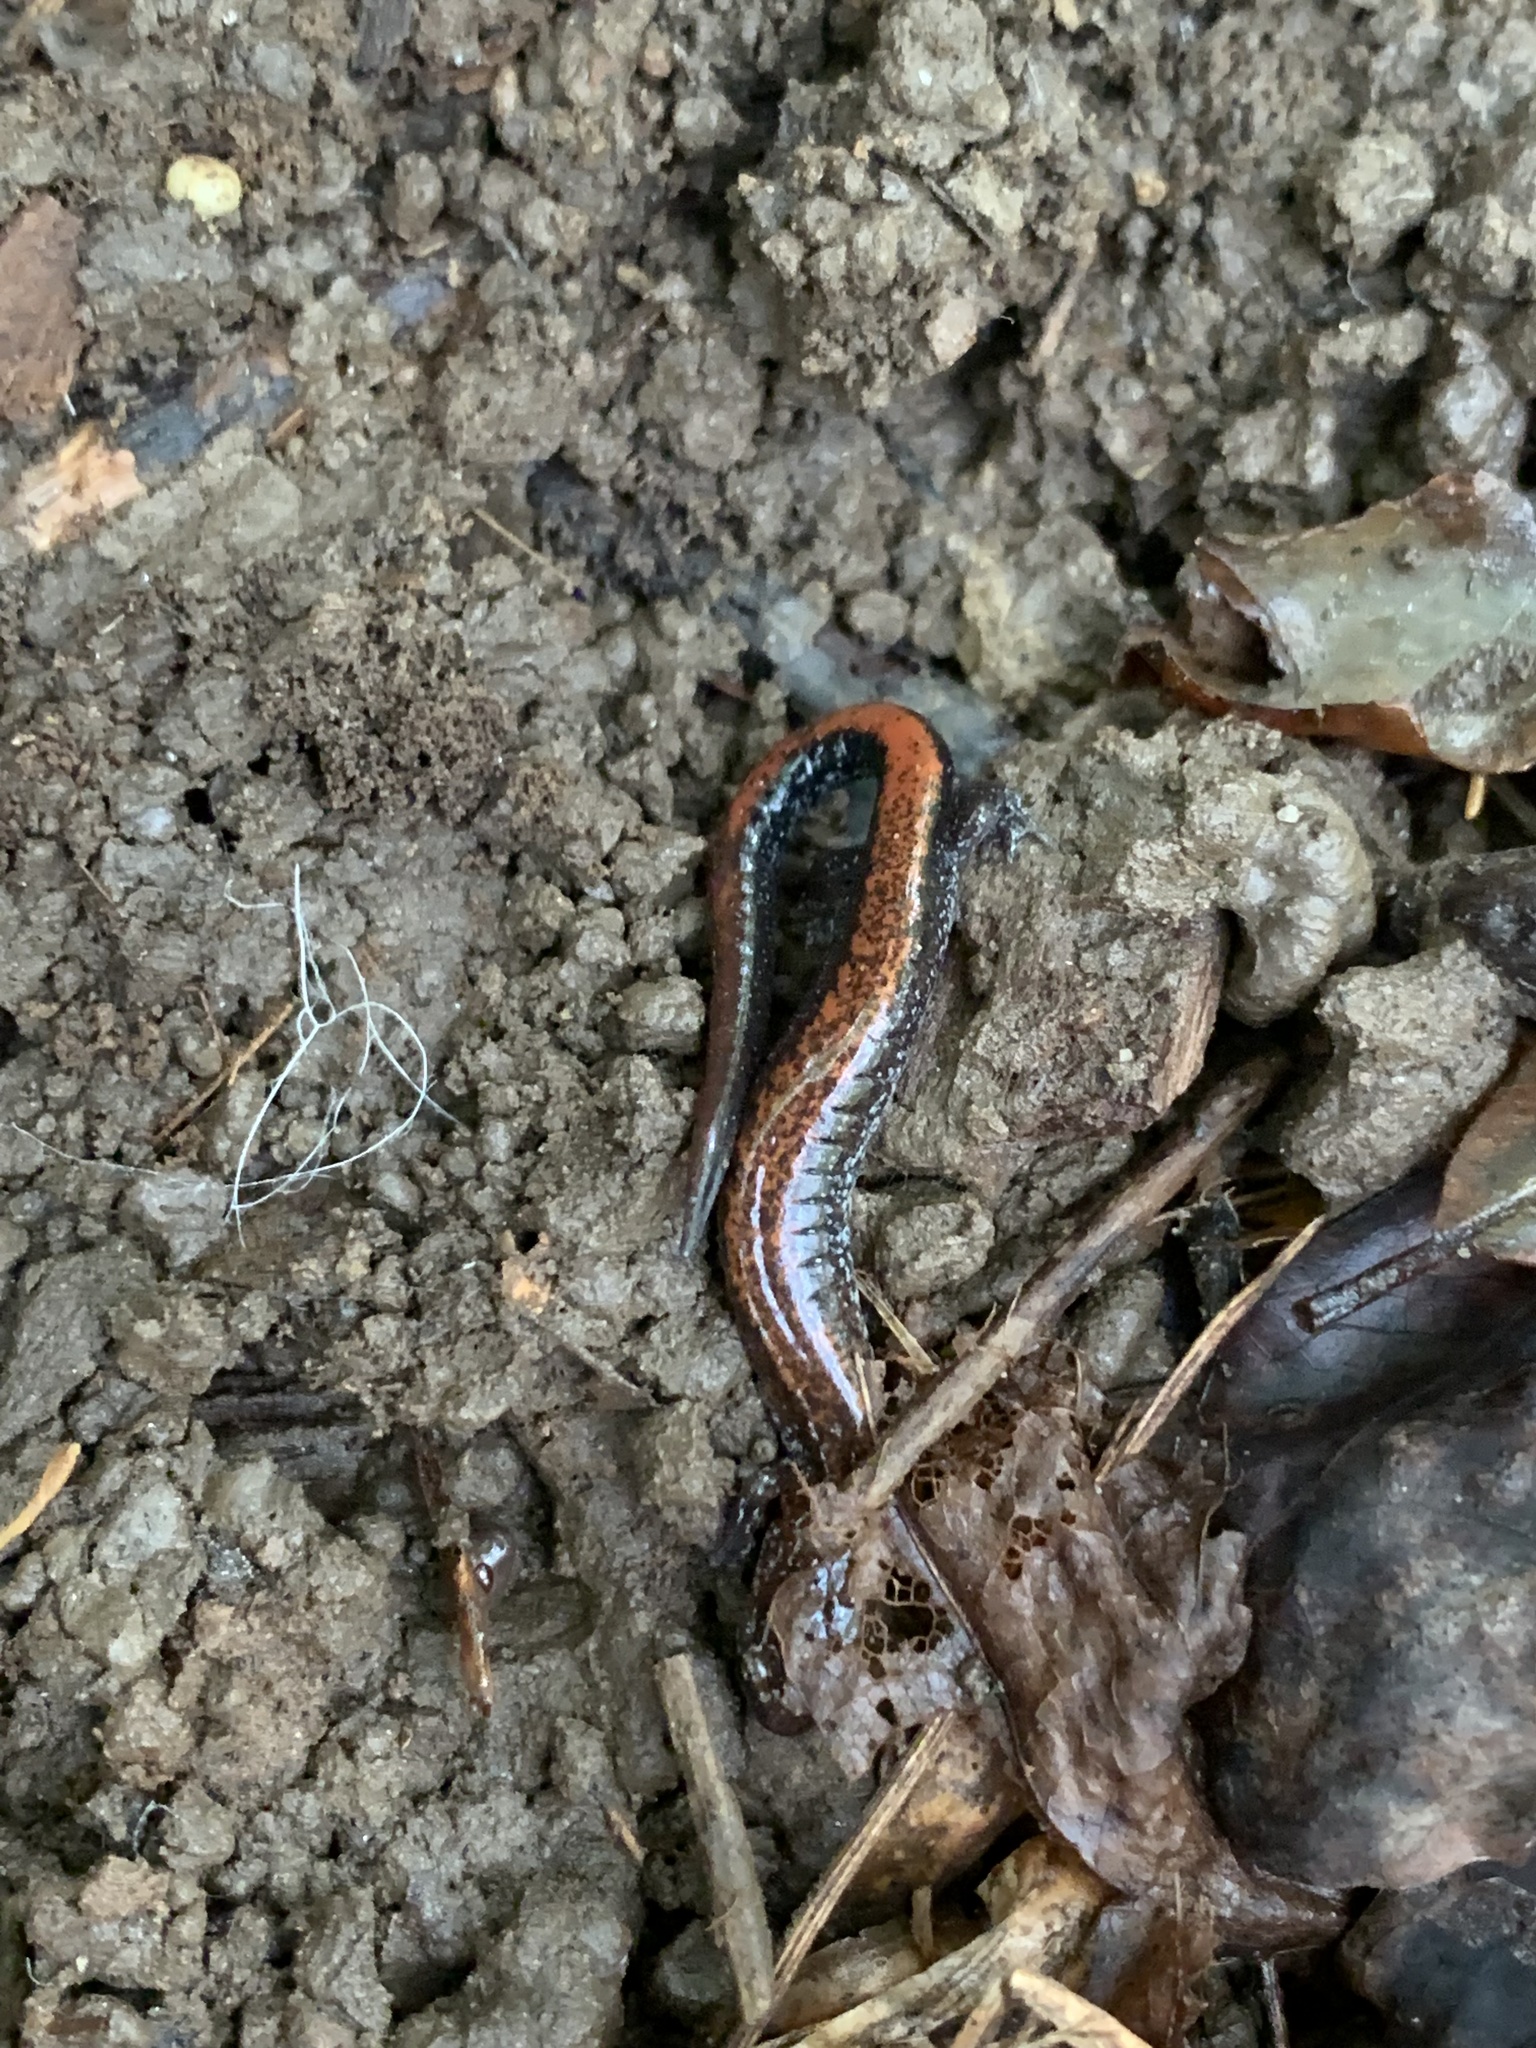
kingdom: Animalia
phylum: Chordata
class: Amphibia
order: Caudata
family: Plethodontidae
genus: Plethodon
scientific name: Plethodon cinereus
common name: Redback salamander
